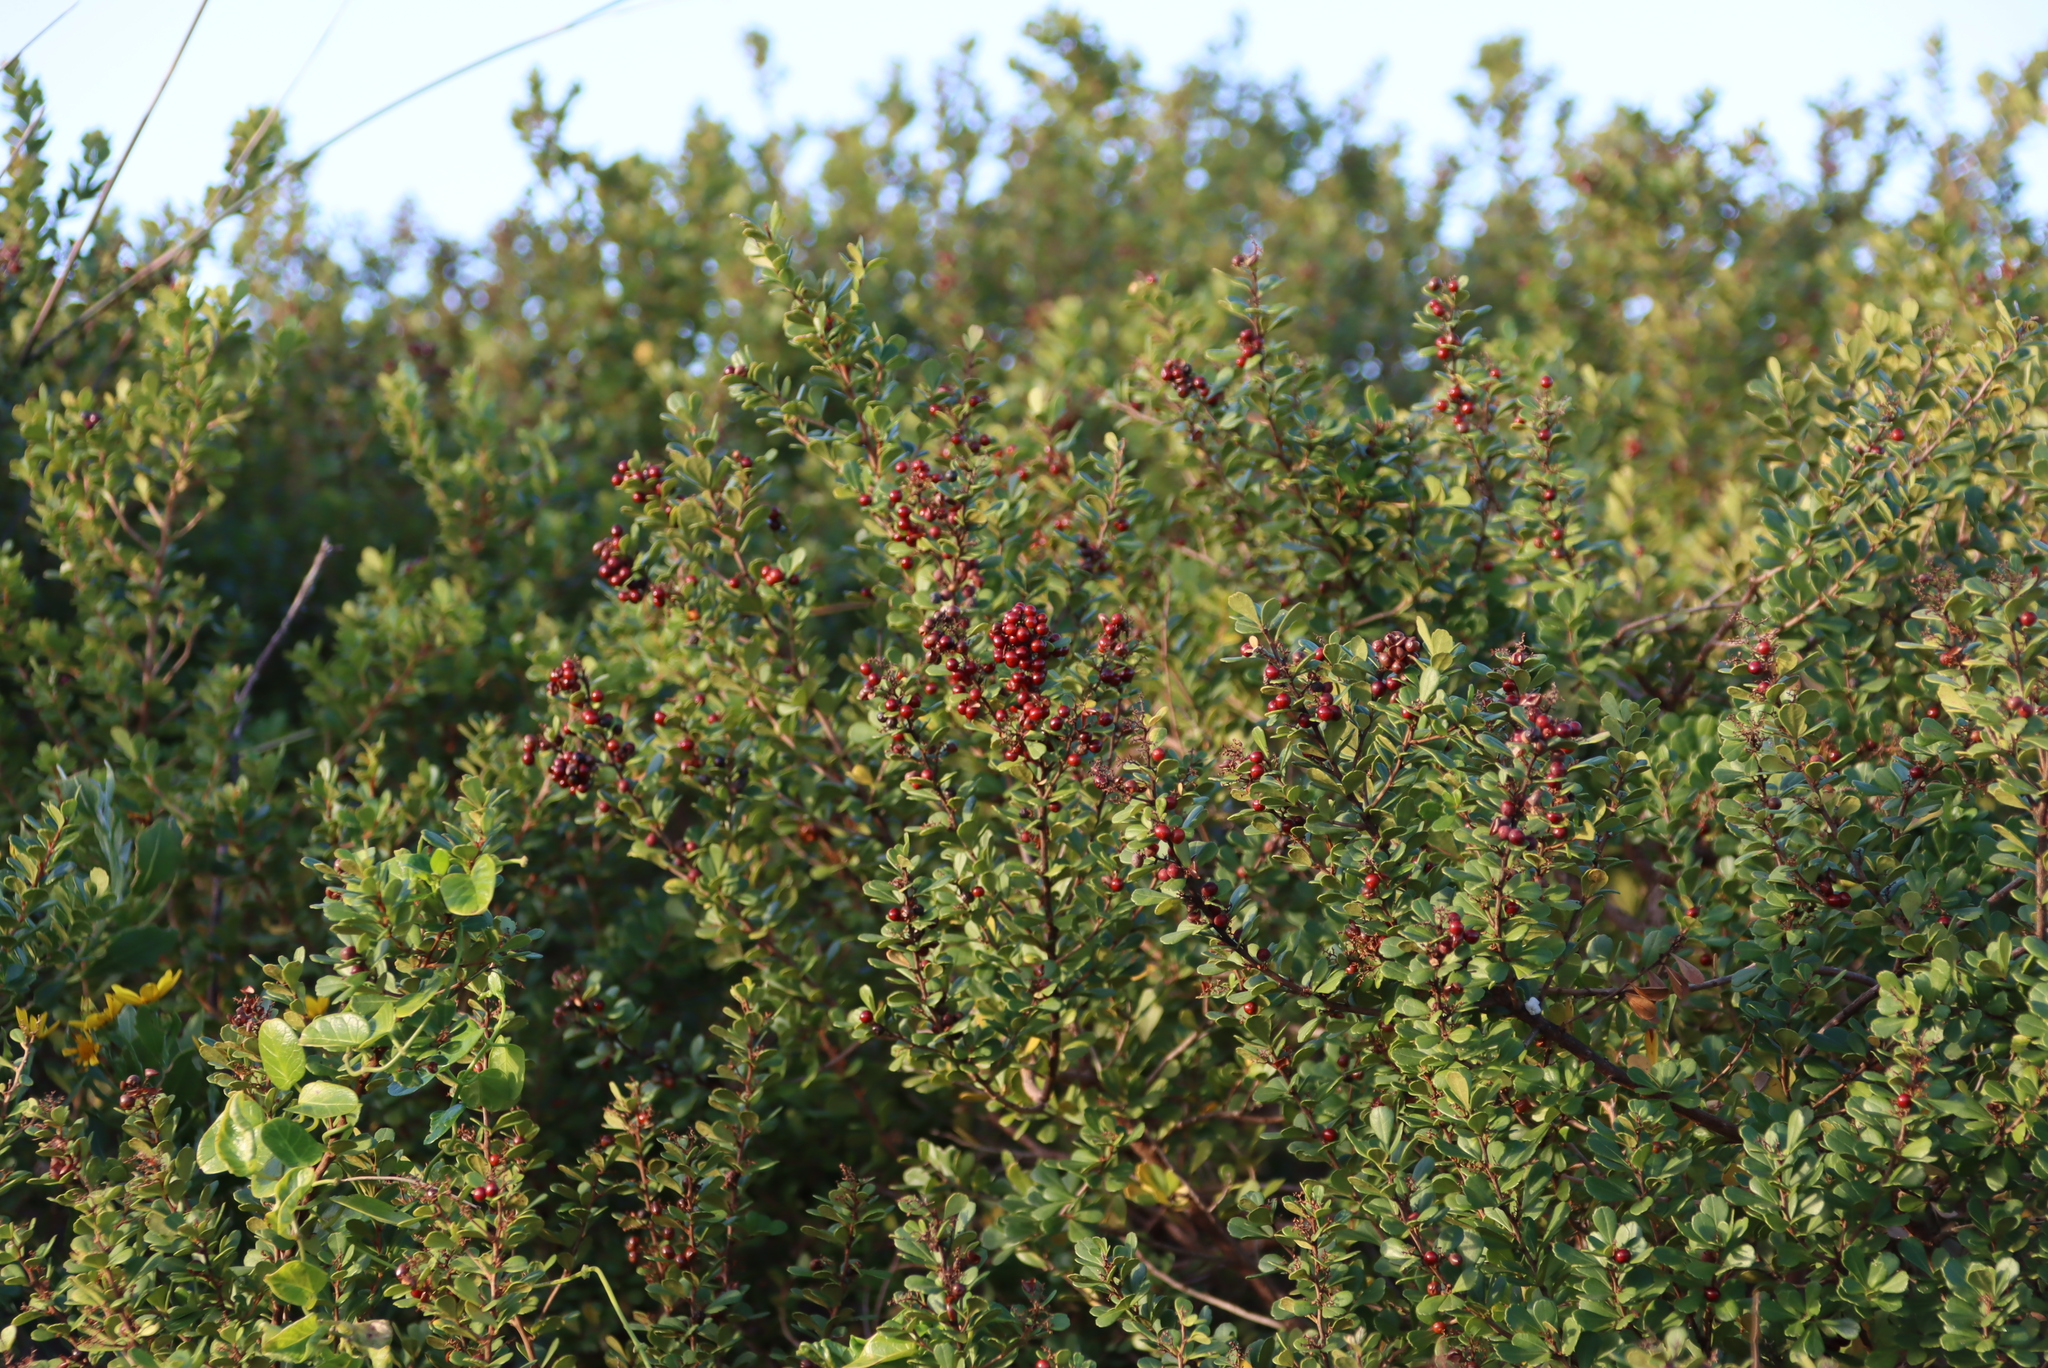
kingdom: Plantae
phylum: Tracheophyta
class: Magnoliopsida
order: Sapindales
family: Anacardiaceae
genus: Searsia
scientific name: Searsia crenata
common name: Crowberry
